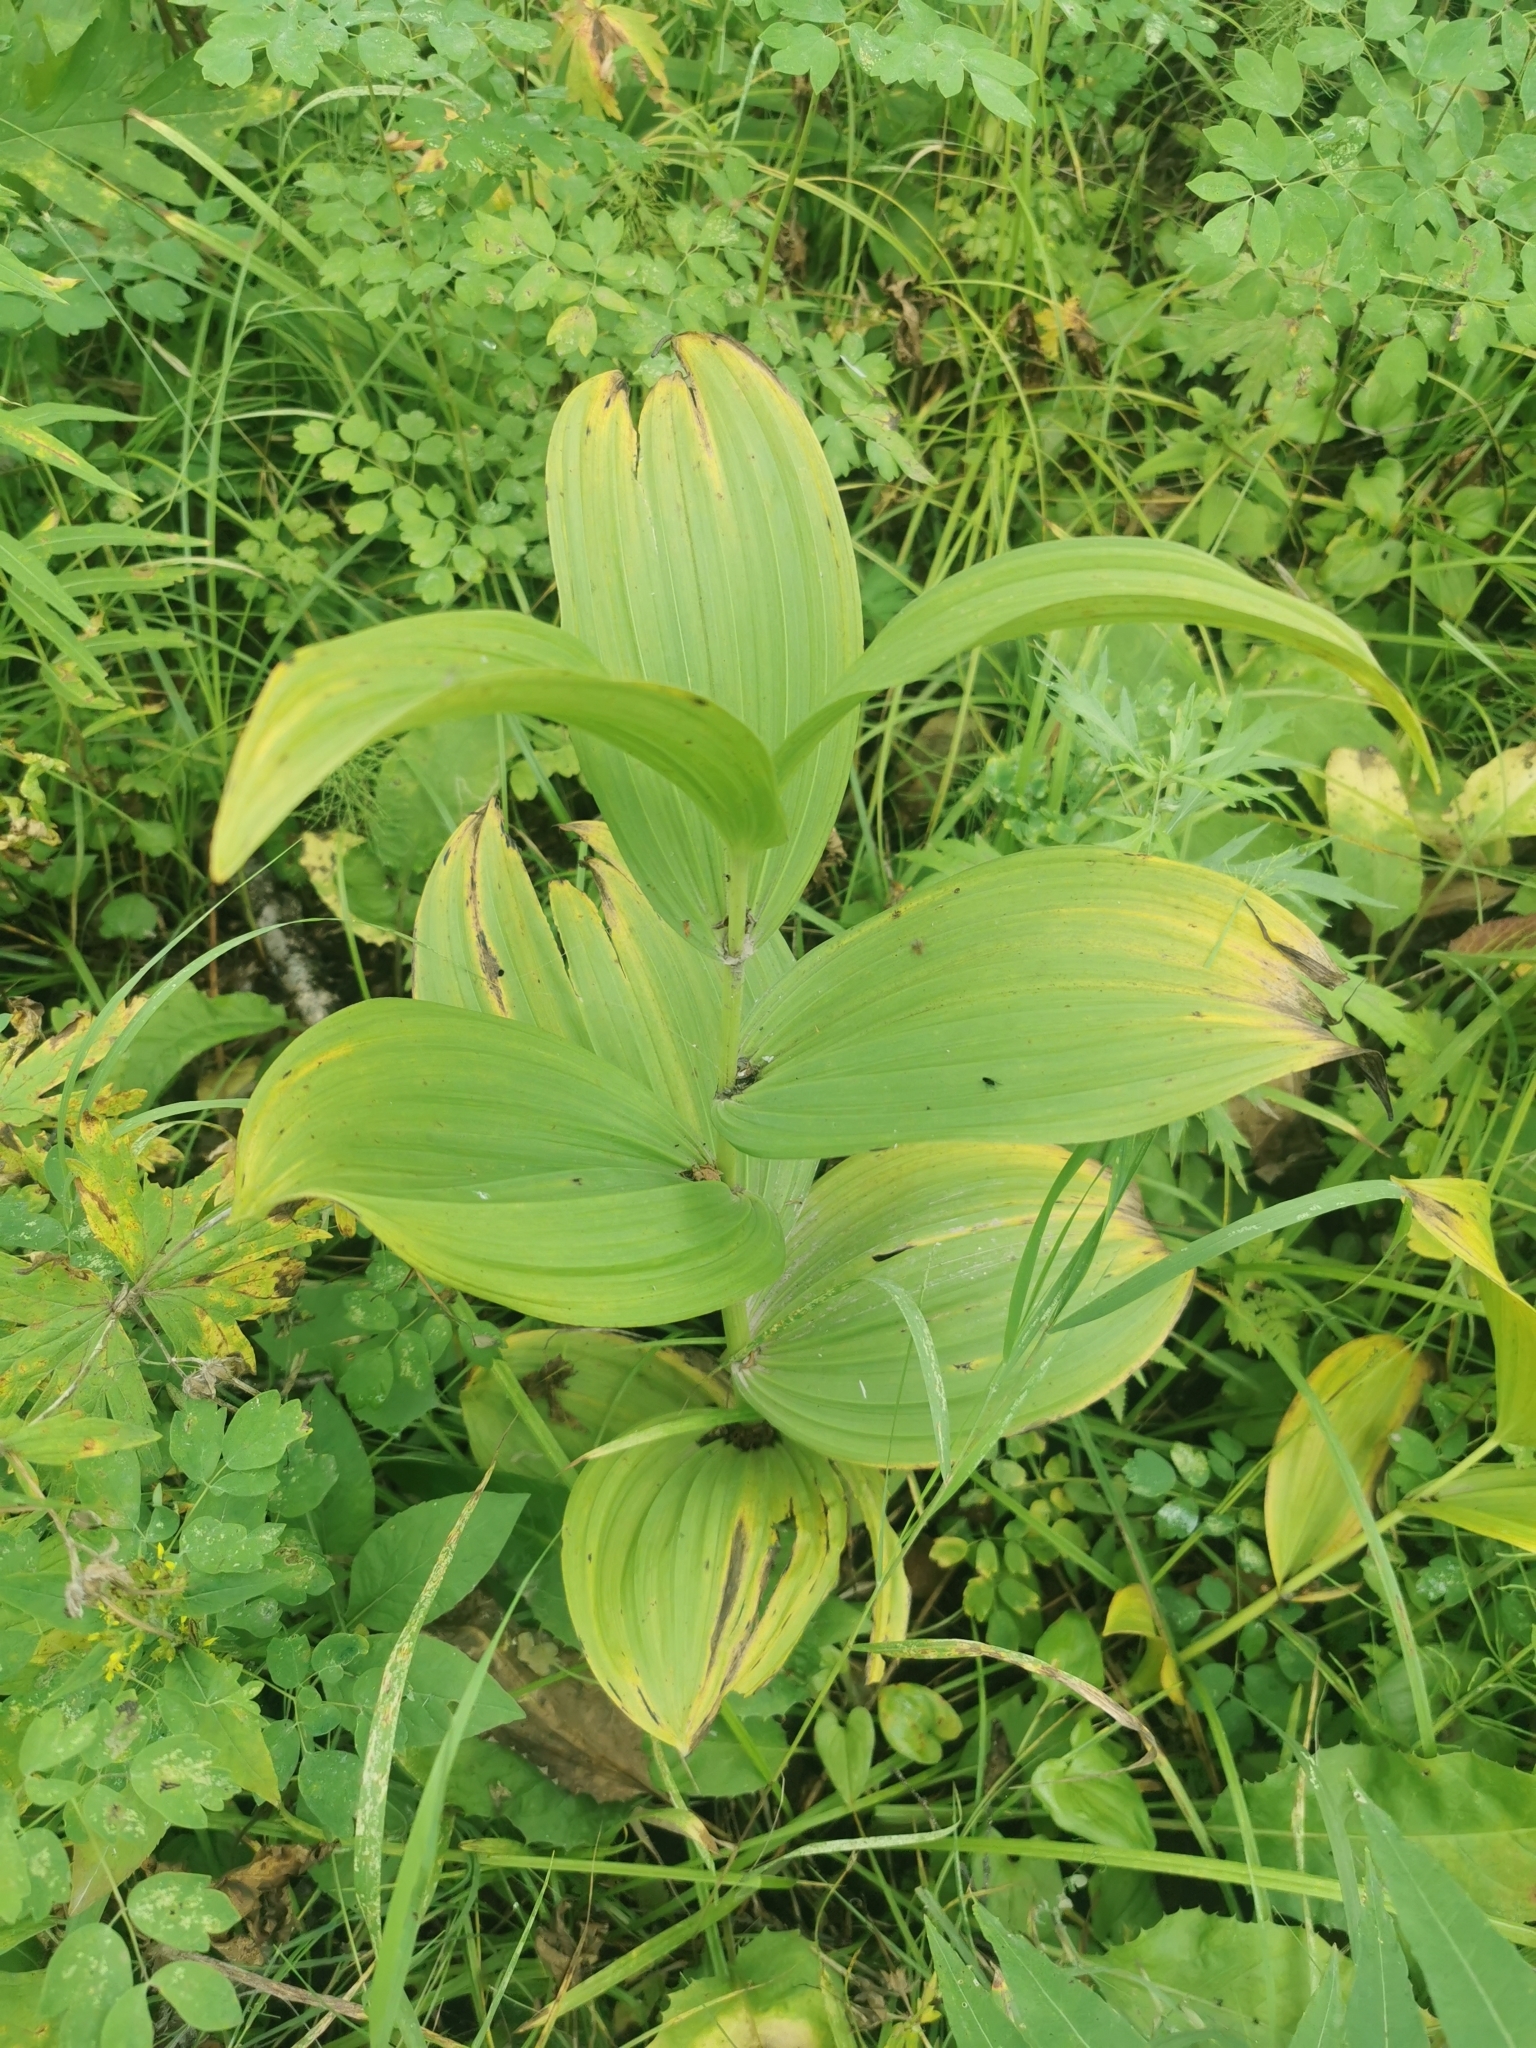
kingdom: Plantae
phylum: Tracheophyta
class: Liliopsida
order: Liliales
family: Melanthiaceae
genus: Veratrum
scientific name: Veratrum oxysepalum
